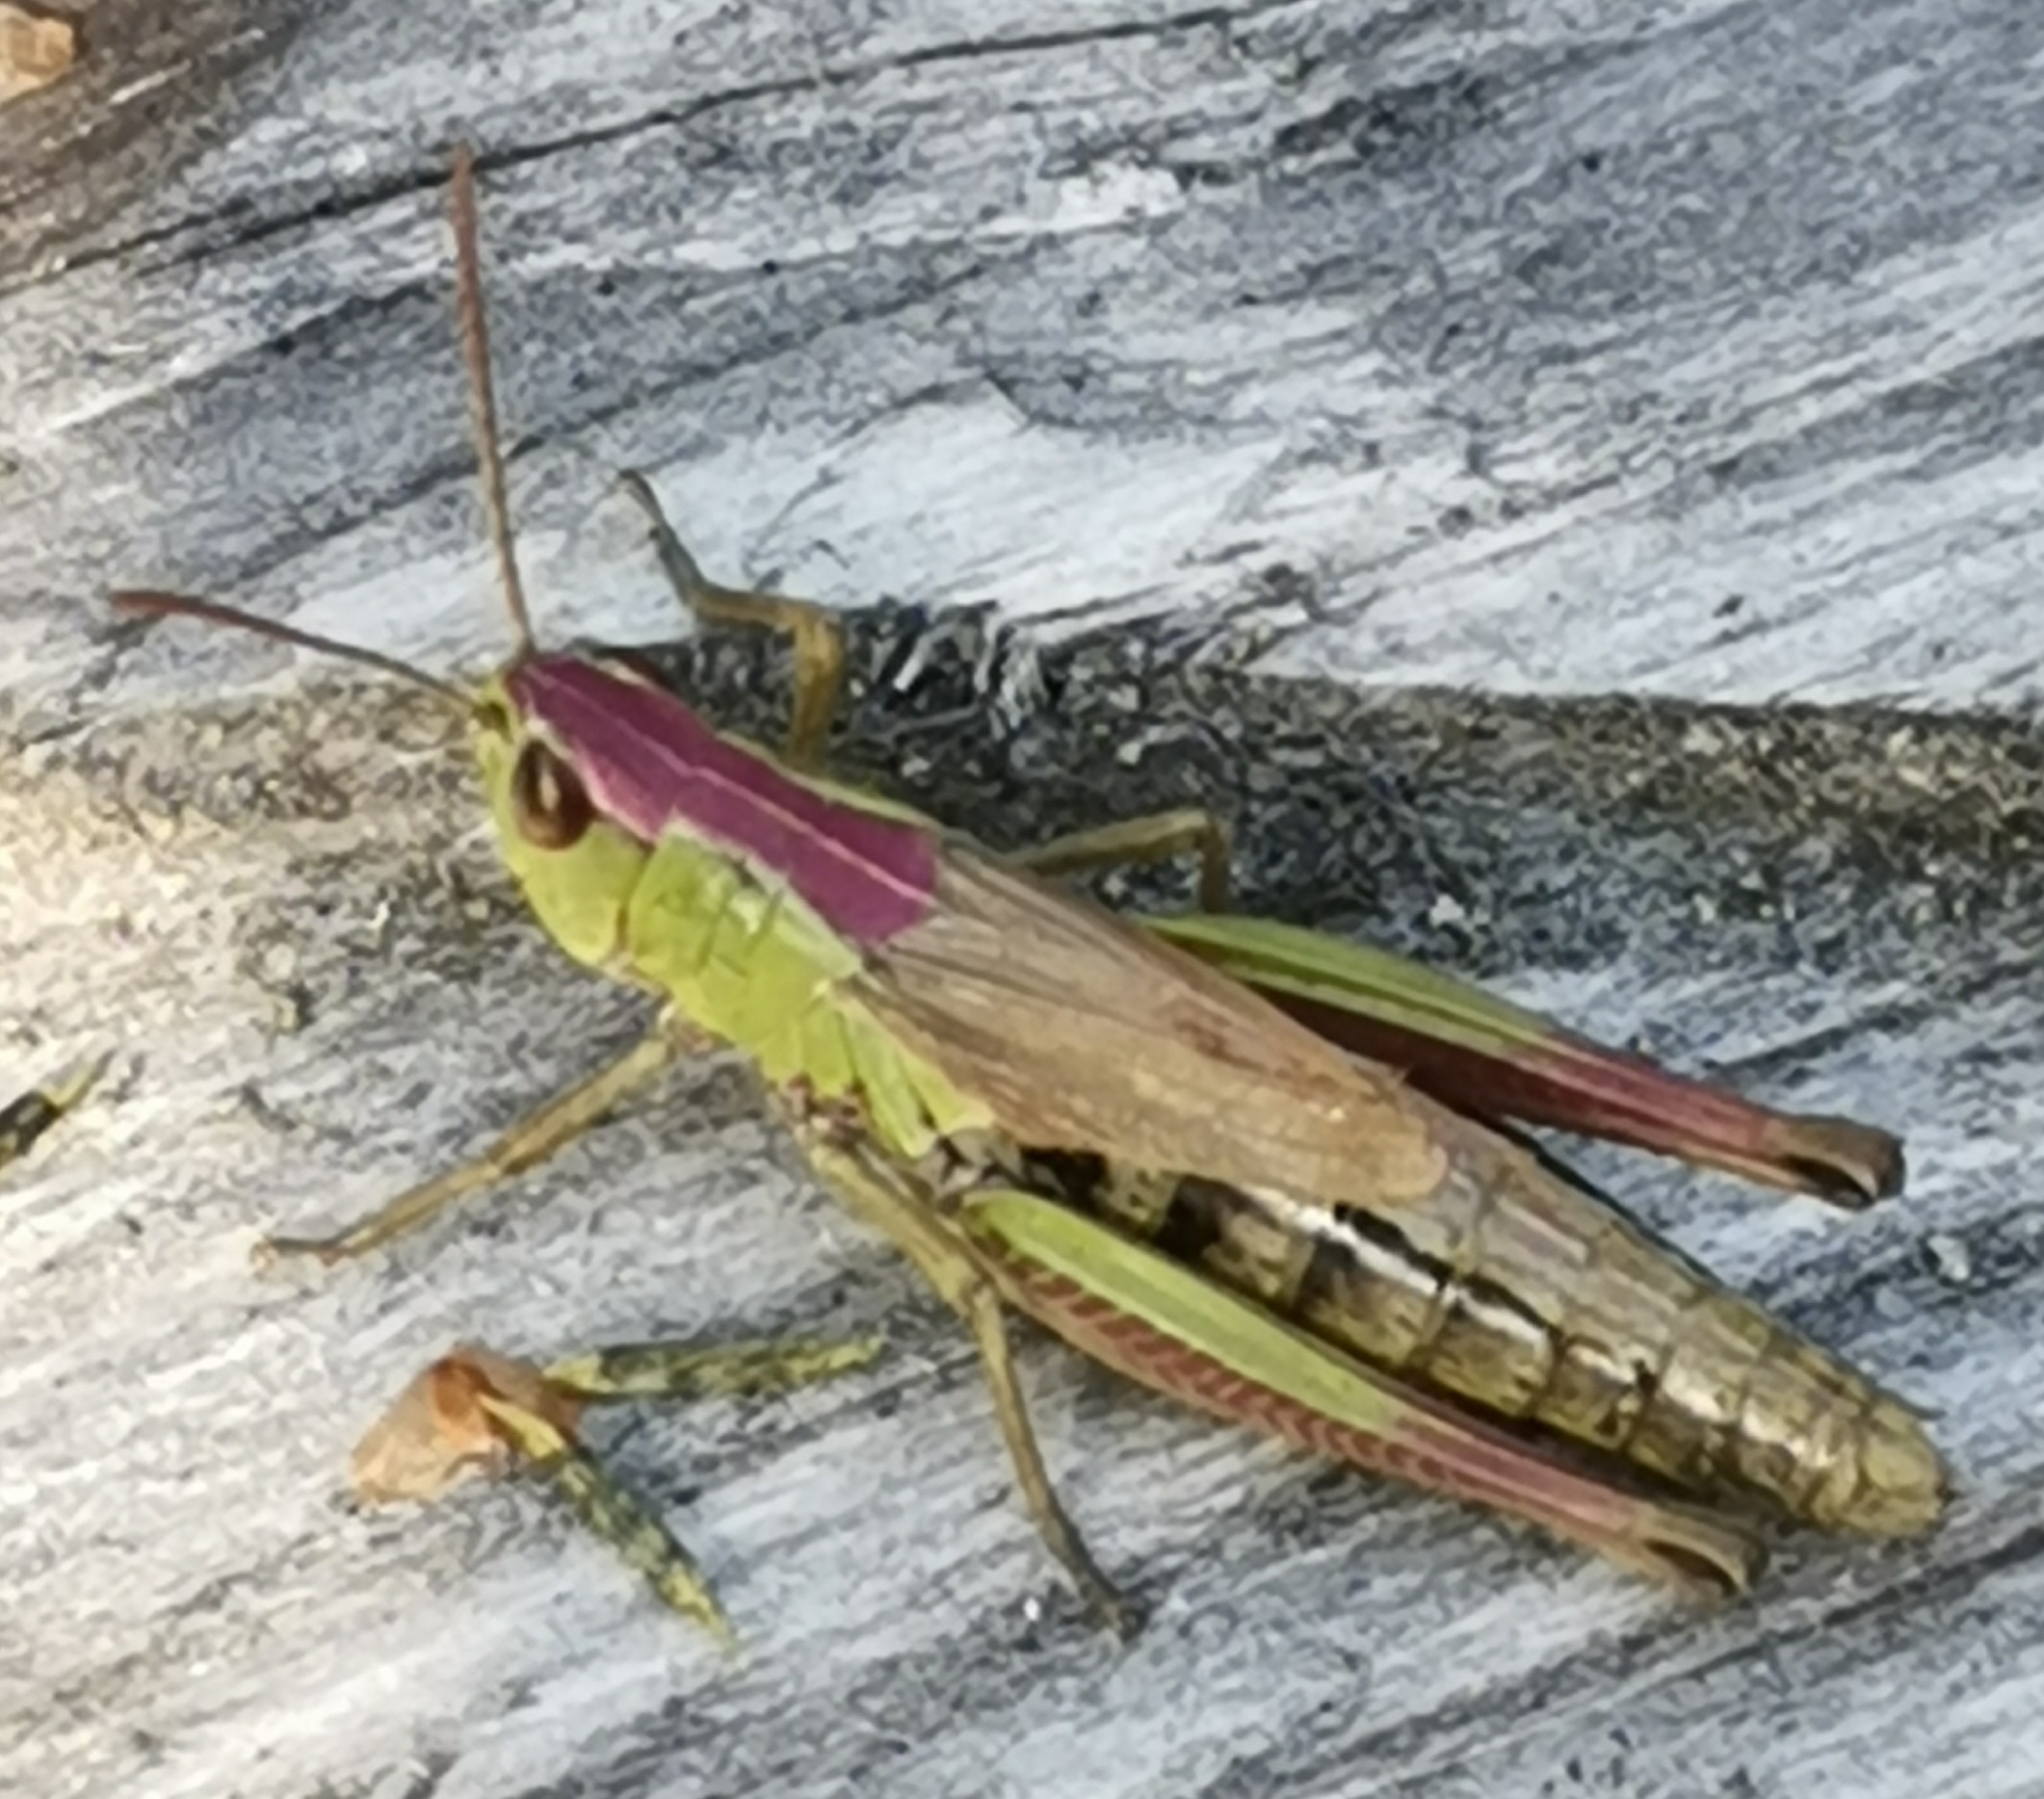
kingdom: Animalia
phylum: Arthropoda
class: Insecta
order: Orthoptera
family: Acrididae
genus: Pseudochorthippus
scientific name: Pseudochorthippus parallelus
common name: Meadow grasshopper
